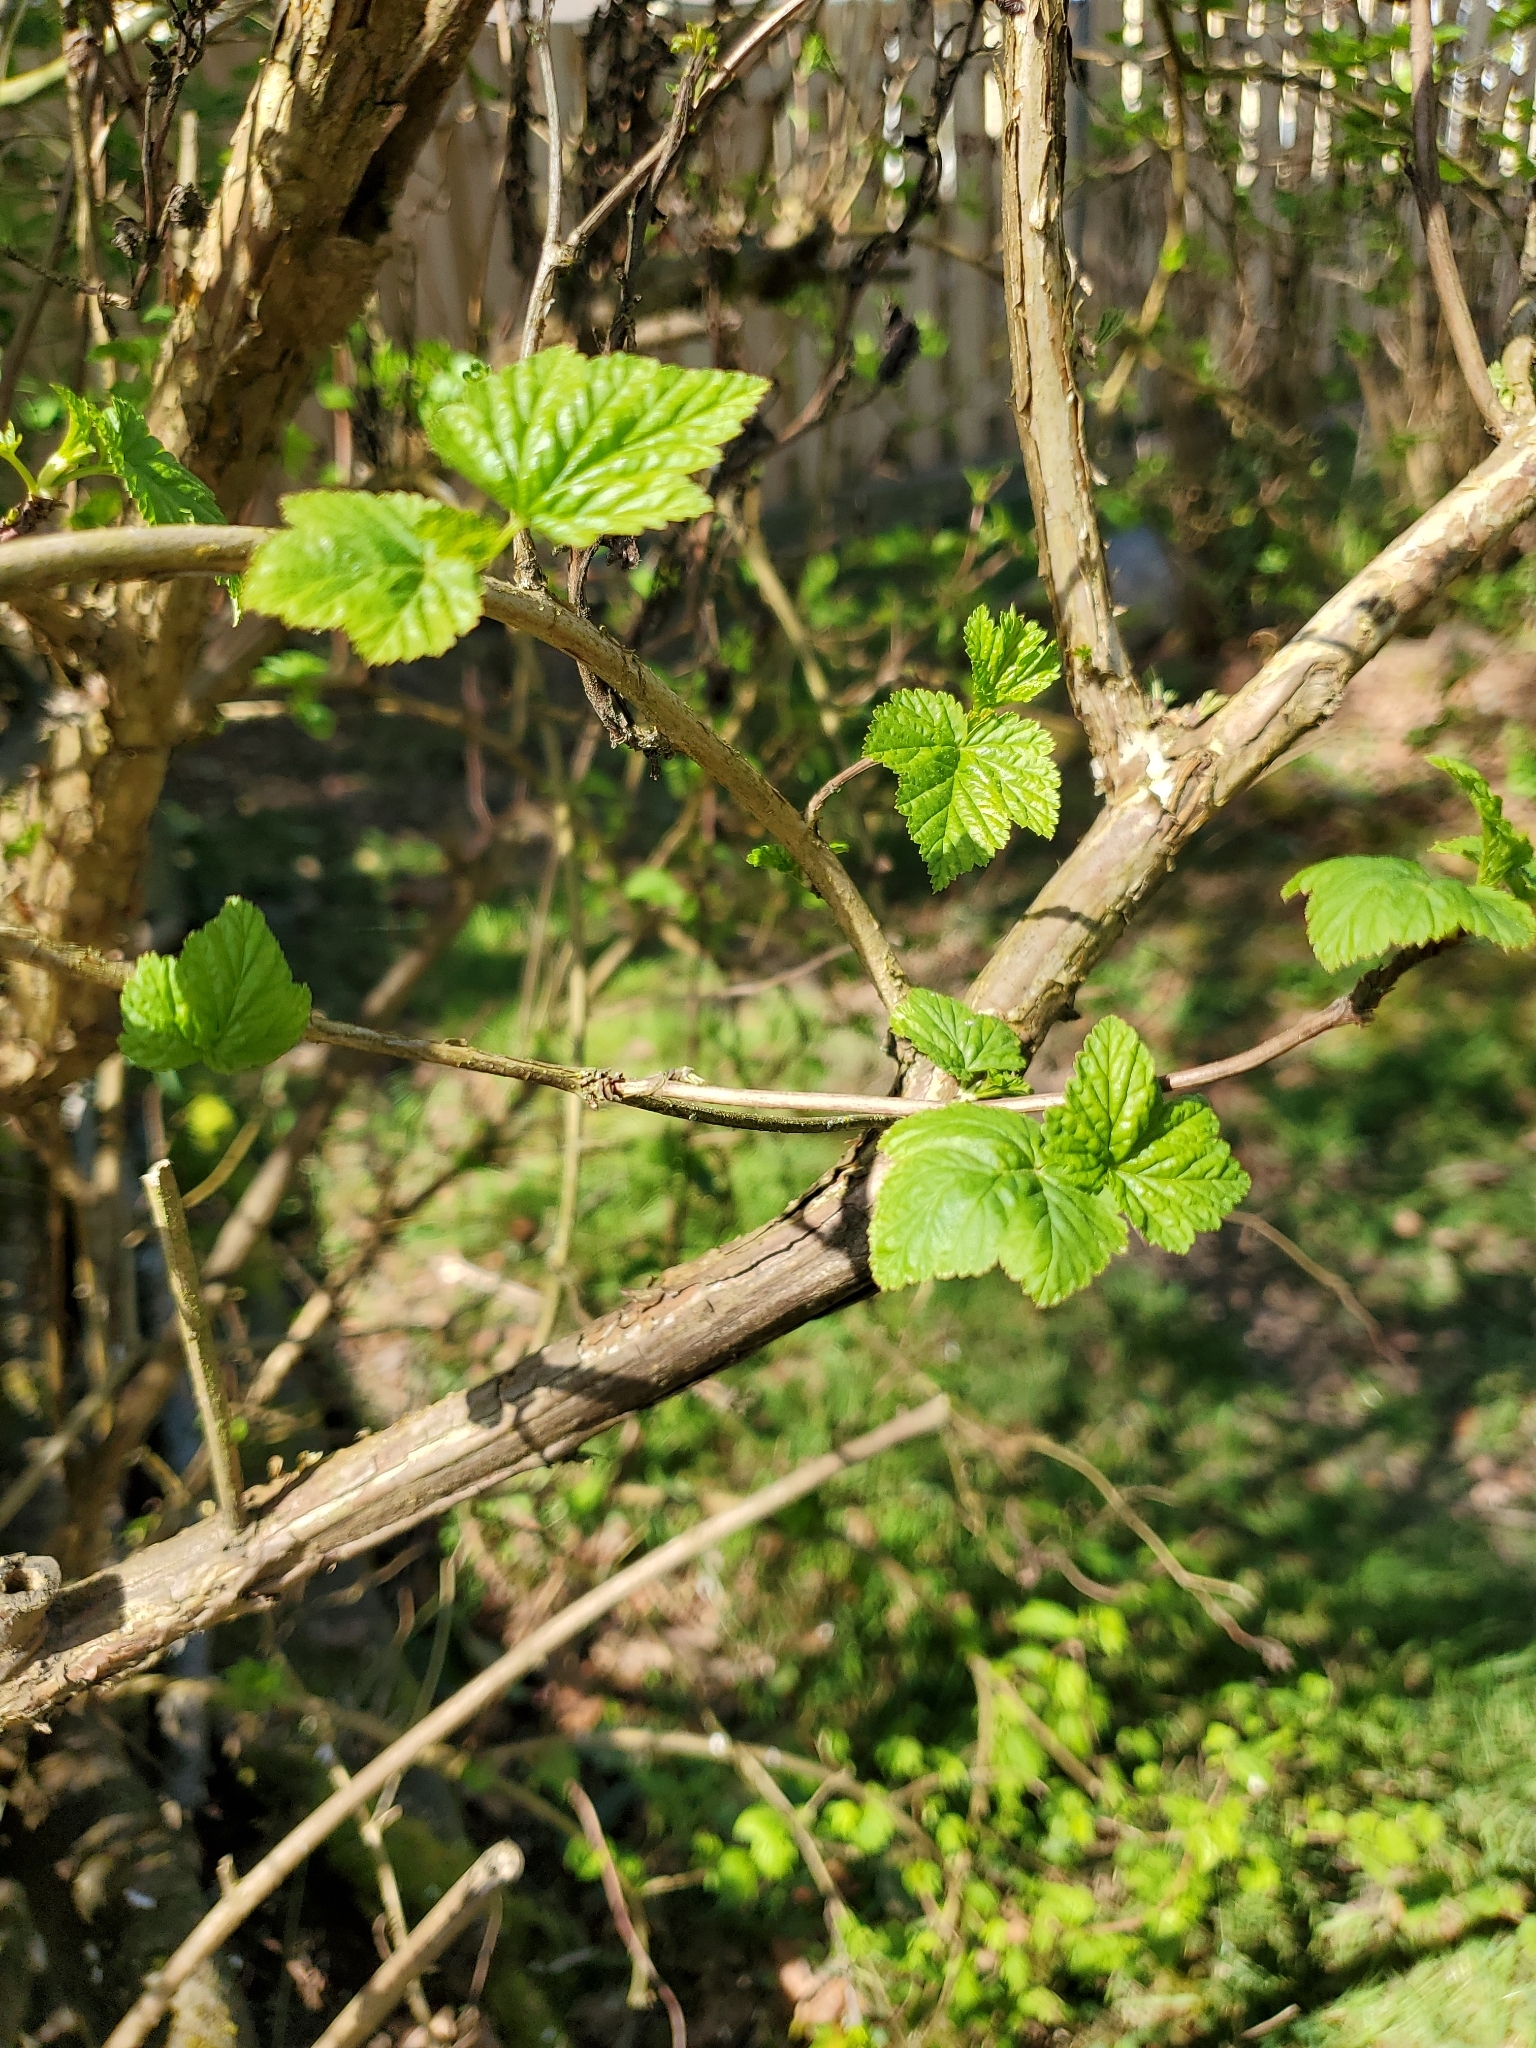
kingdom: Plantae
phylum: Tracheophyta
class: Magnoliopsida
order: Rosales
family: Rosaceae
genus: Physocarpus
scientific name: Physocarpus capitatus
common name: Pacific ninebark
